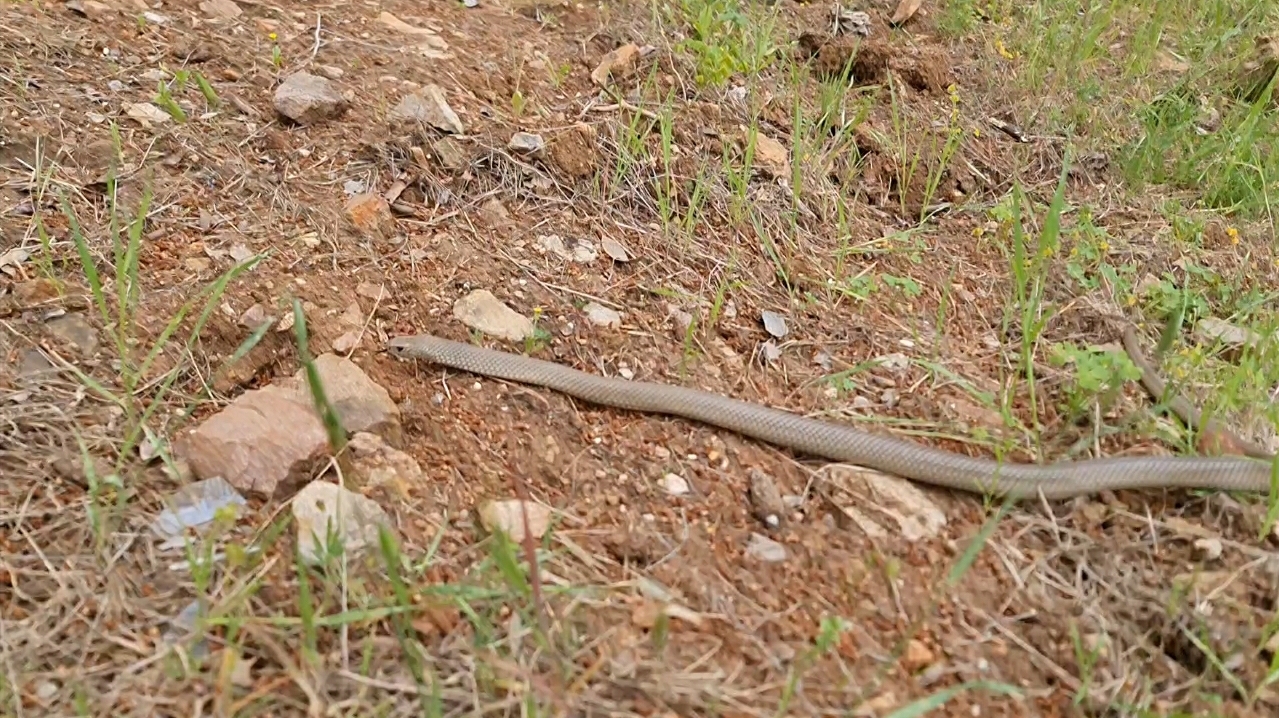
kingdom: Animalia
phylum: Chordata
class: Squamata
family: Elapidae
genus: Pseudonaja
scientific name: Pseudonaja textilis
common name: Eastern brown snake
